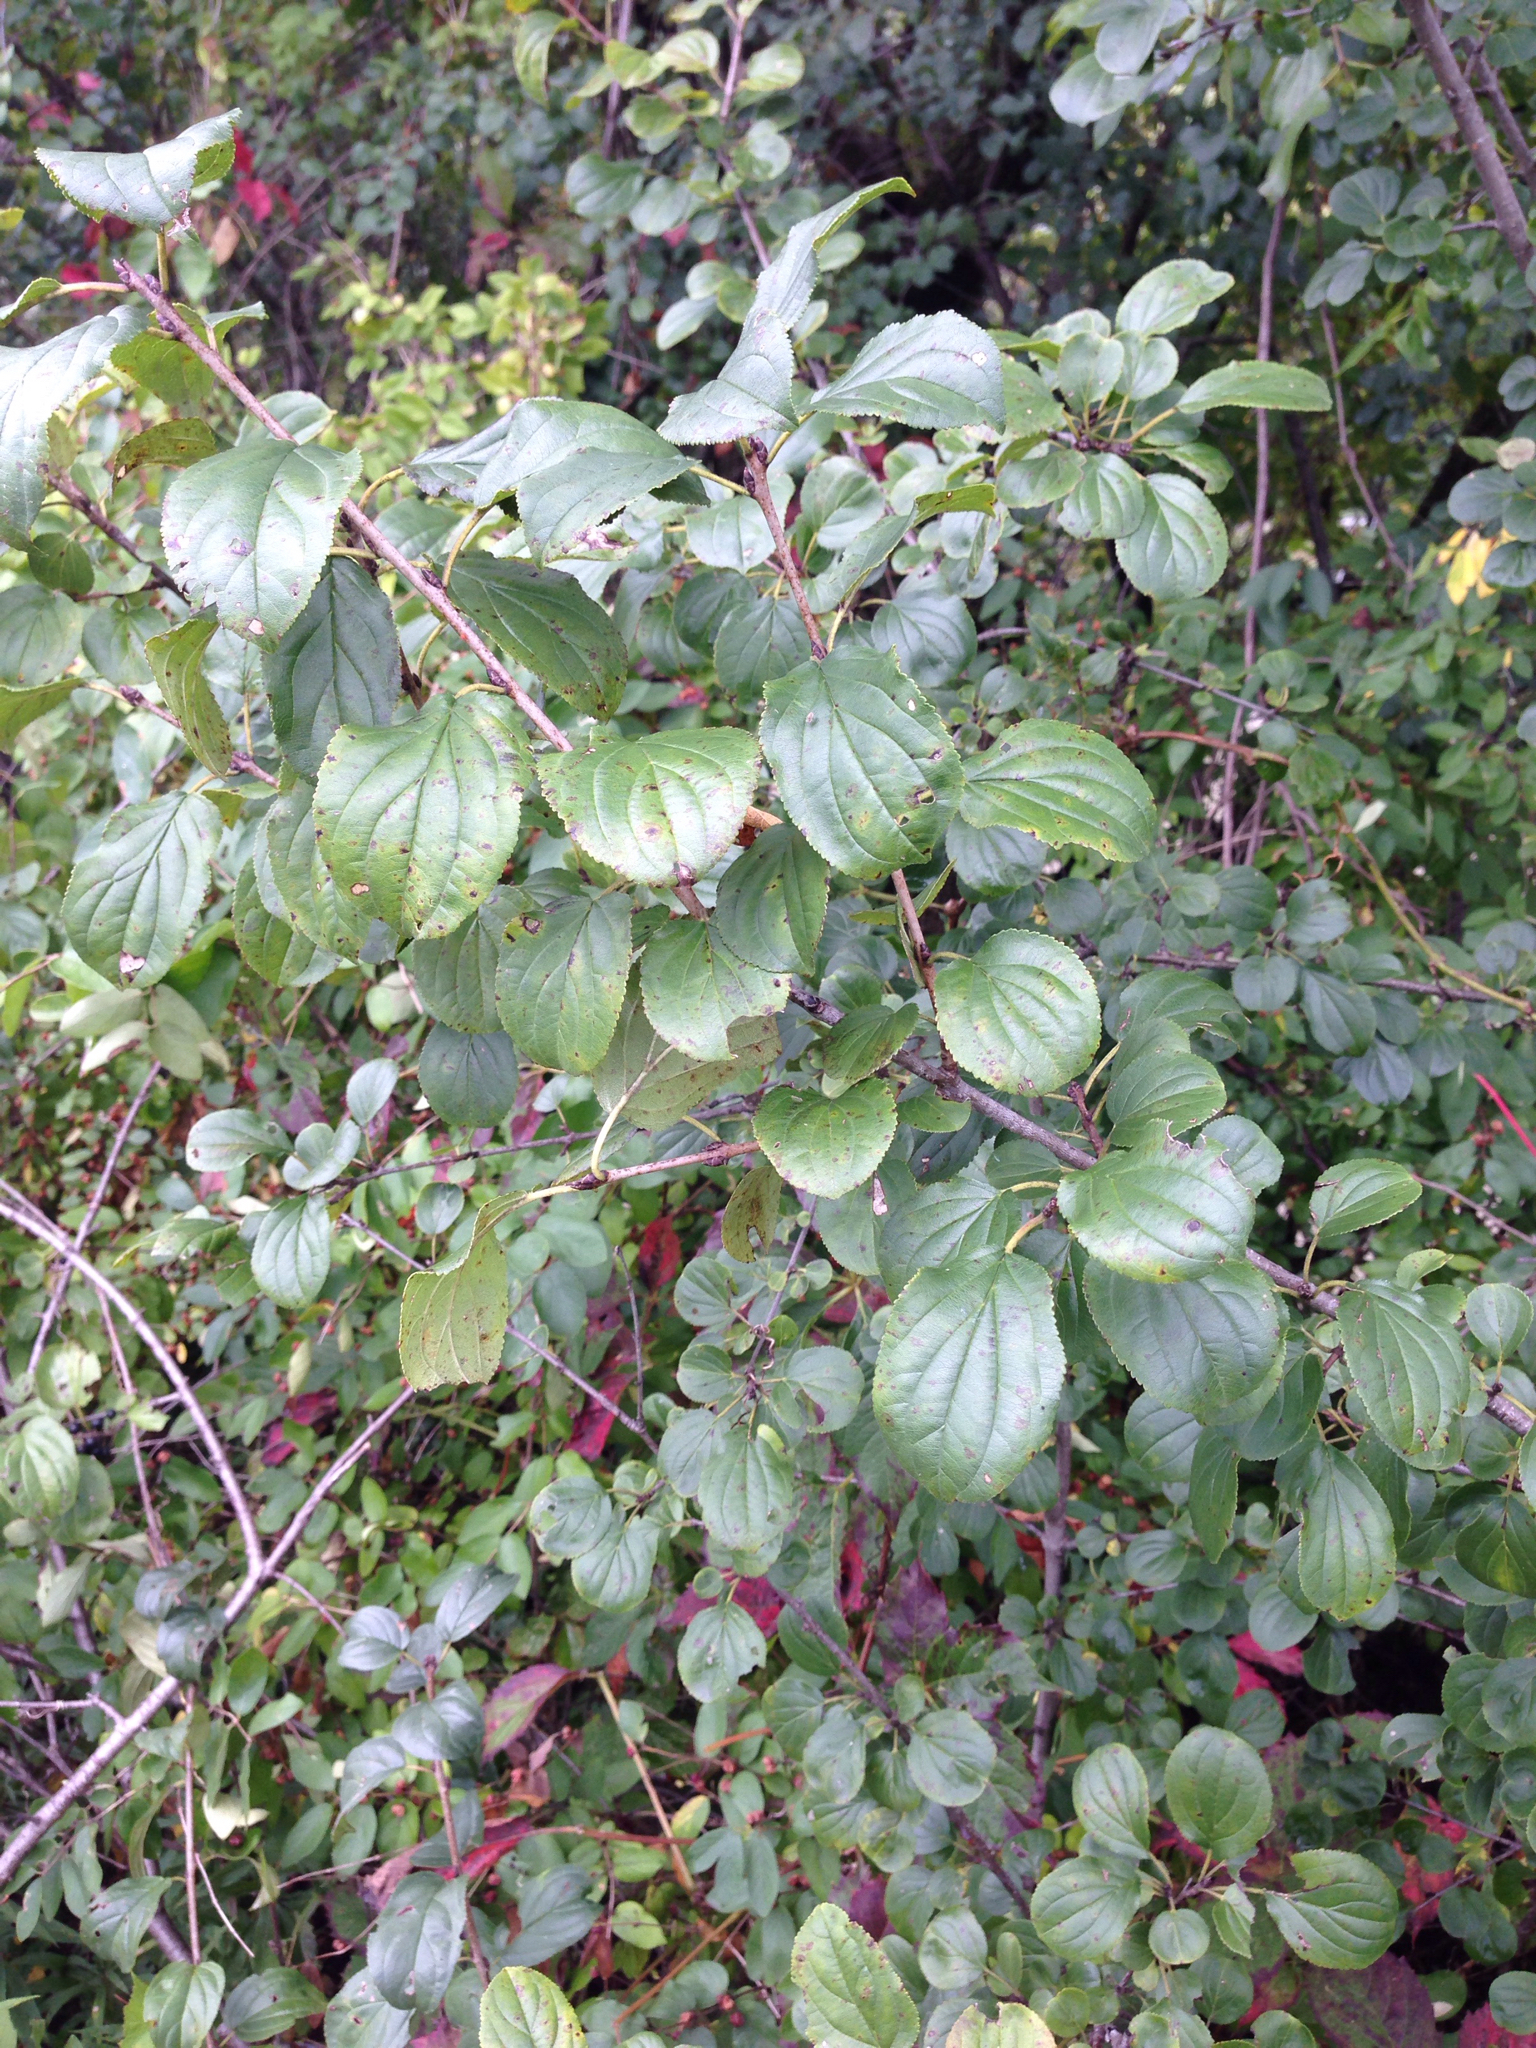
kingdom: Plantae
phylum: Tracheophyta
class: Magnoliopsida
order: Rosales
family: Rhamnaceae
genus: Rhamnus
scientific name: Rhamnus cathartica
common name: Common buckthorn
